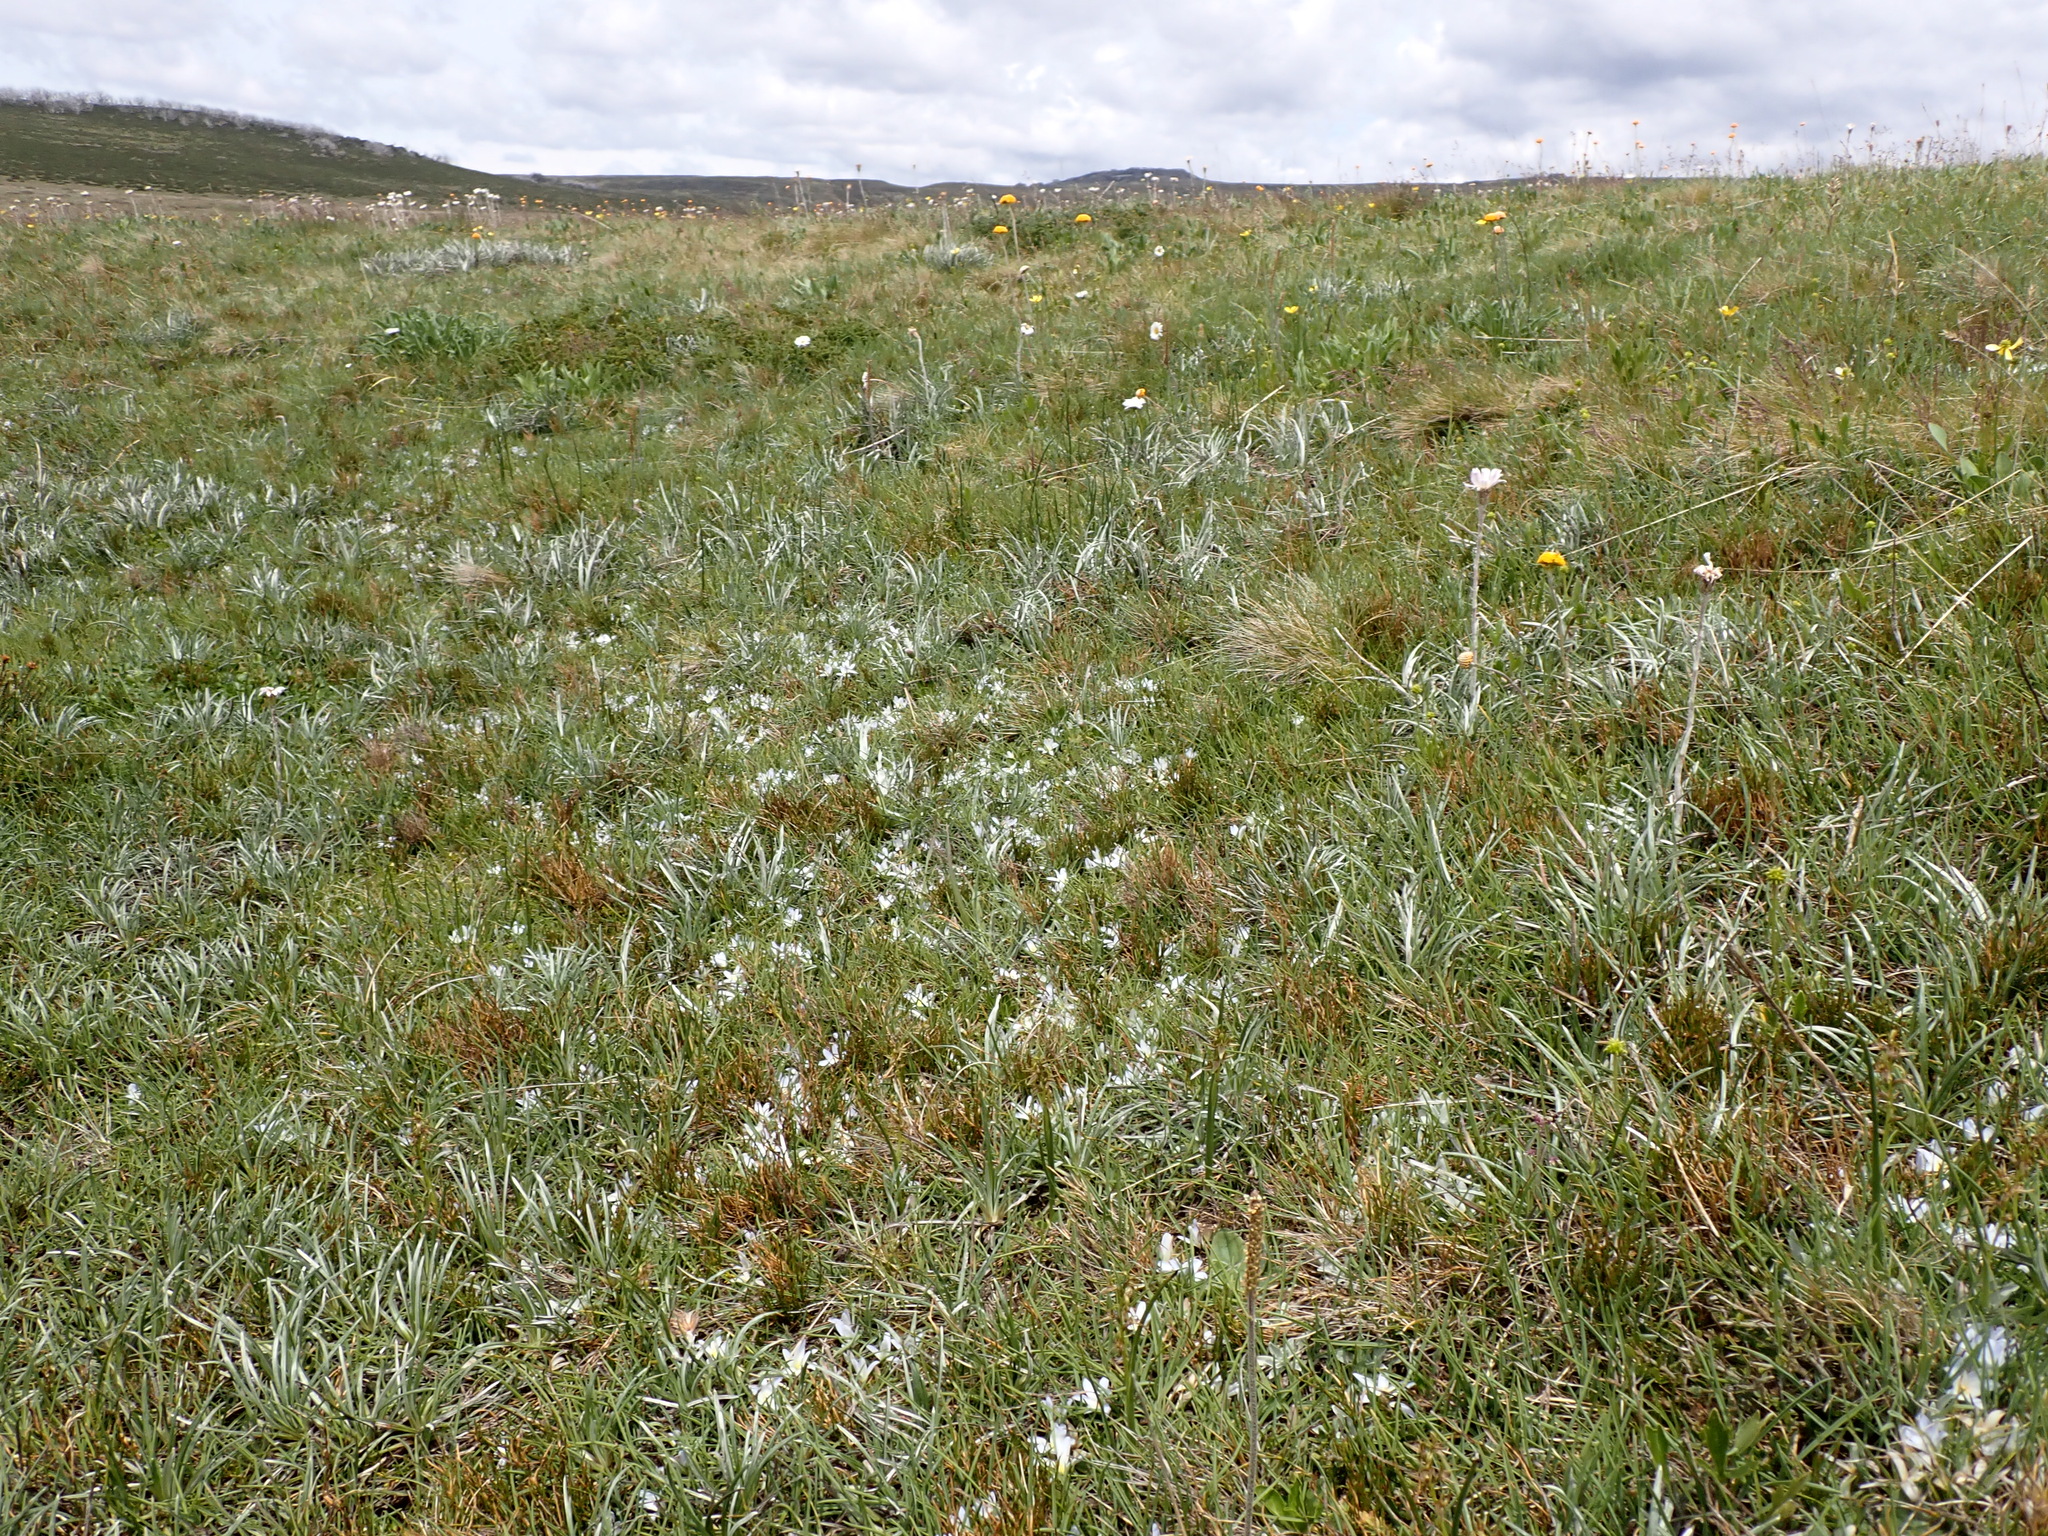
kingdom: Plantae
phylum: Tracheophyta
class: Liliopsida
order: Asparagales
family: Asphodelaceae
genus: Herpolirion
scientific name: Herpolirion novae-zelandiae
